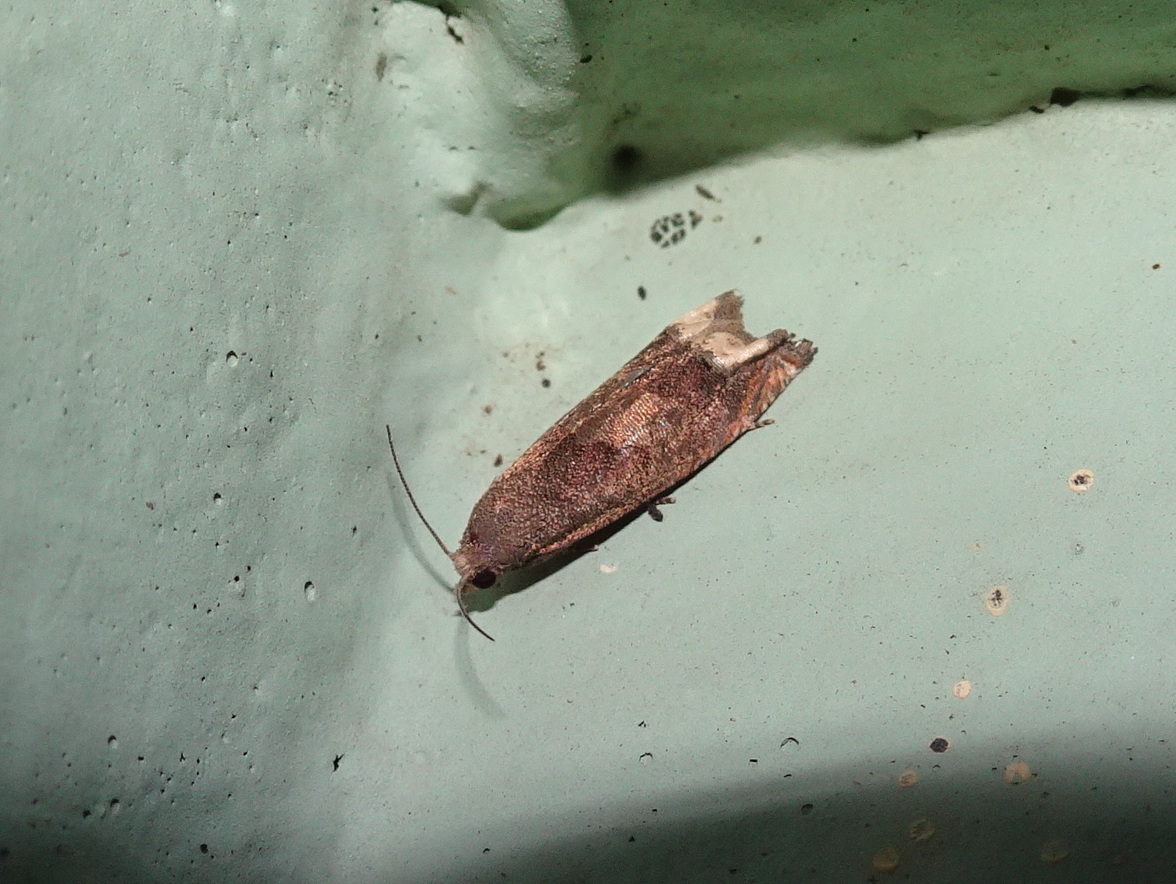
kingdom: Animalia
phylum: Arthropoda
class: Insecta
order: Lepidoptera
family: Tortricidae
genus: Epiblema
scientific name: Epiblema strenuana
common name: Ragweed borer moth
